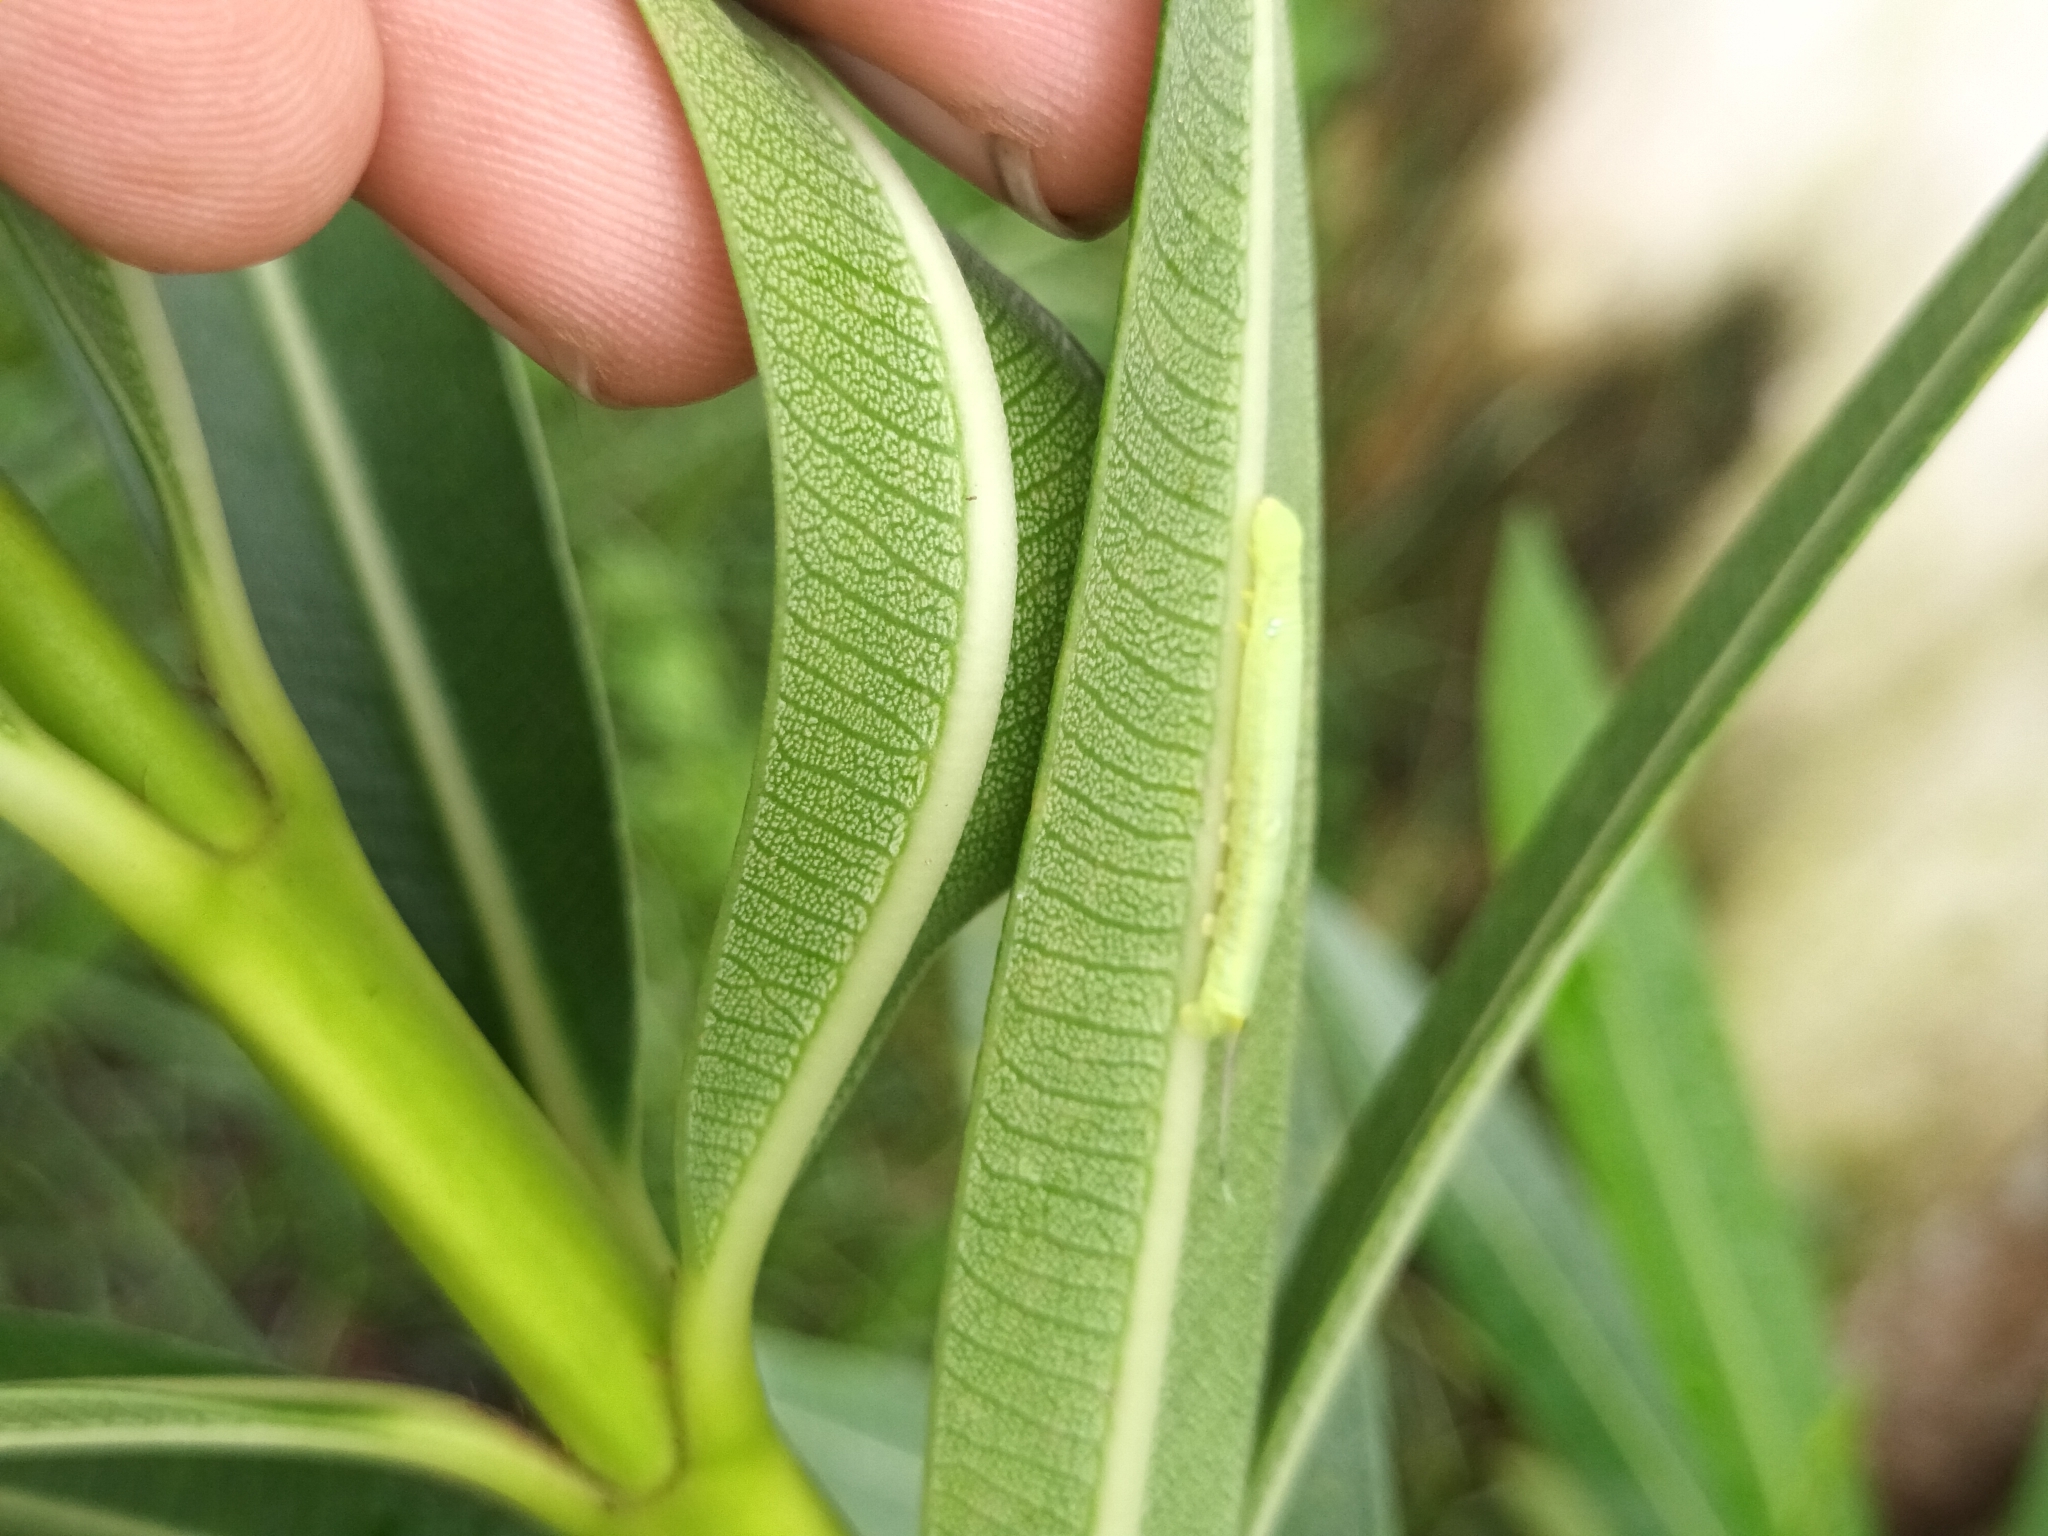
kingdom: Animalia
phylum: Arthropoda
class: Insecta
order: Lepidoptera
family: Sphingidae
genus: Daphnis
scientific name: Daphnis nerii
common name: Oleander hawk-moth
